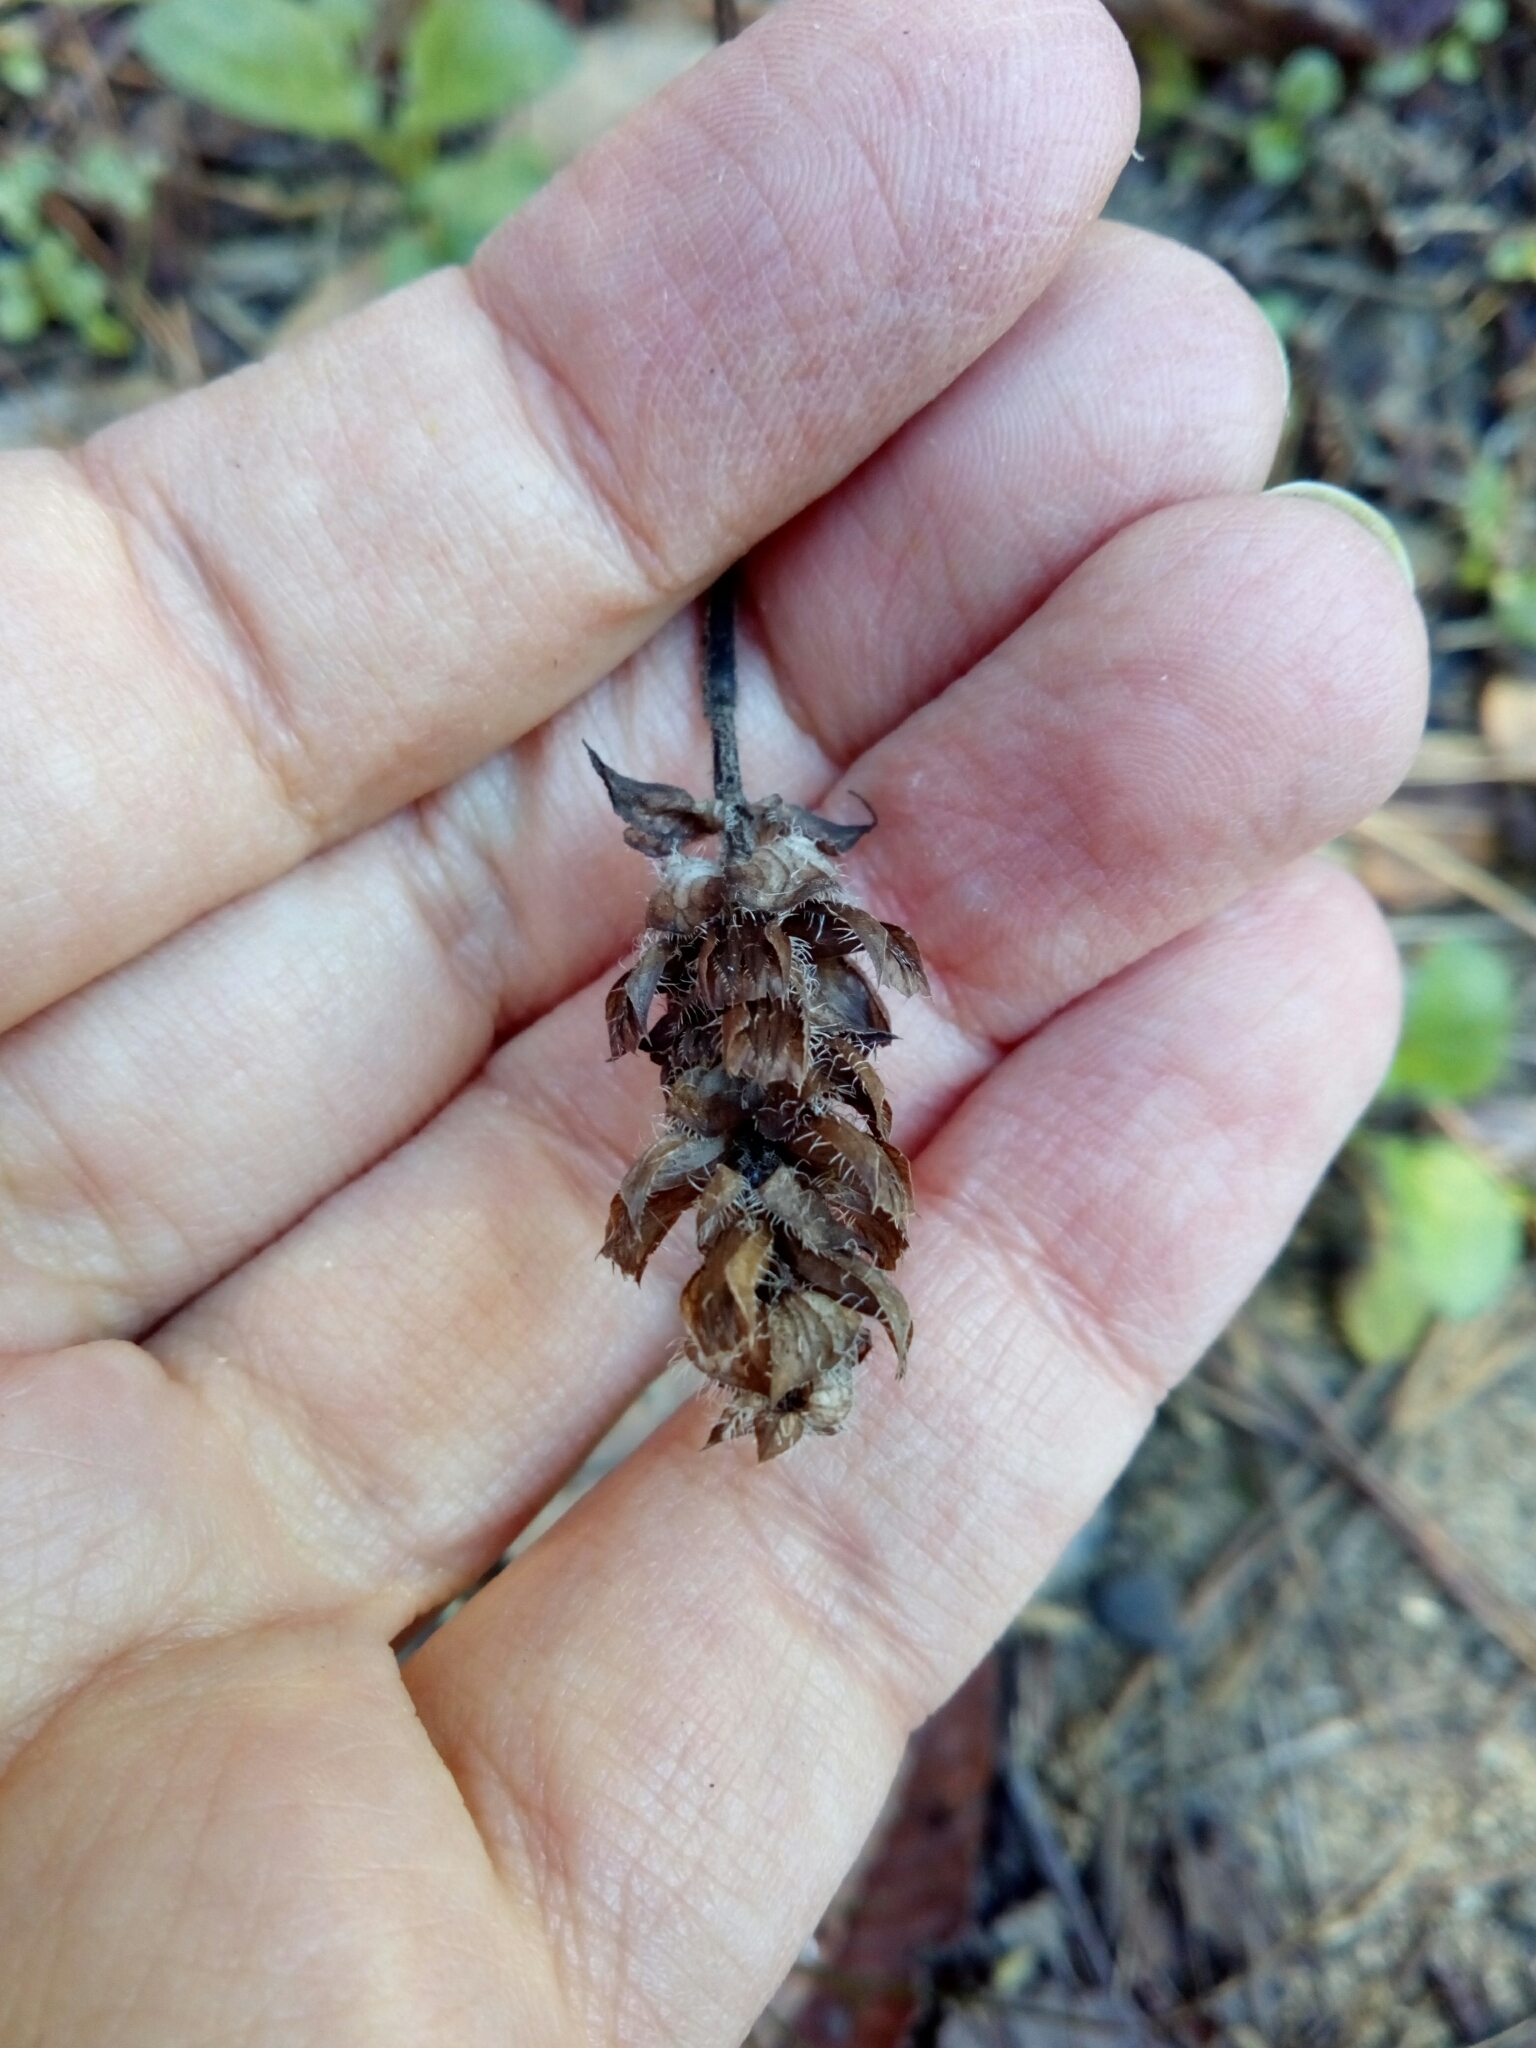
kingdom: Plantae
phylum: Tracheophyta
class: Magnoliopsida
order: Lamiales
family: Lamiaceae
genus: Prunella
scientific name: Prunella vulgaris
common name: Heal-all
